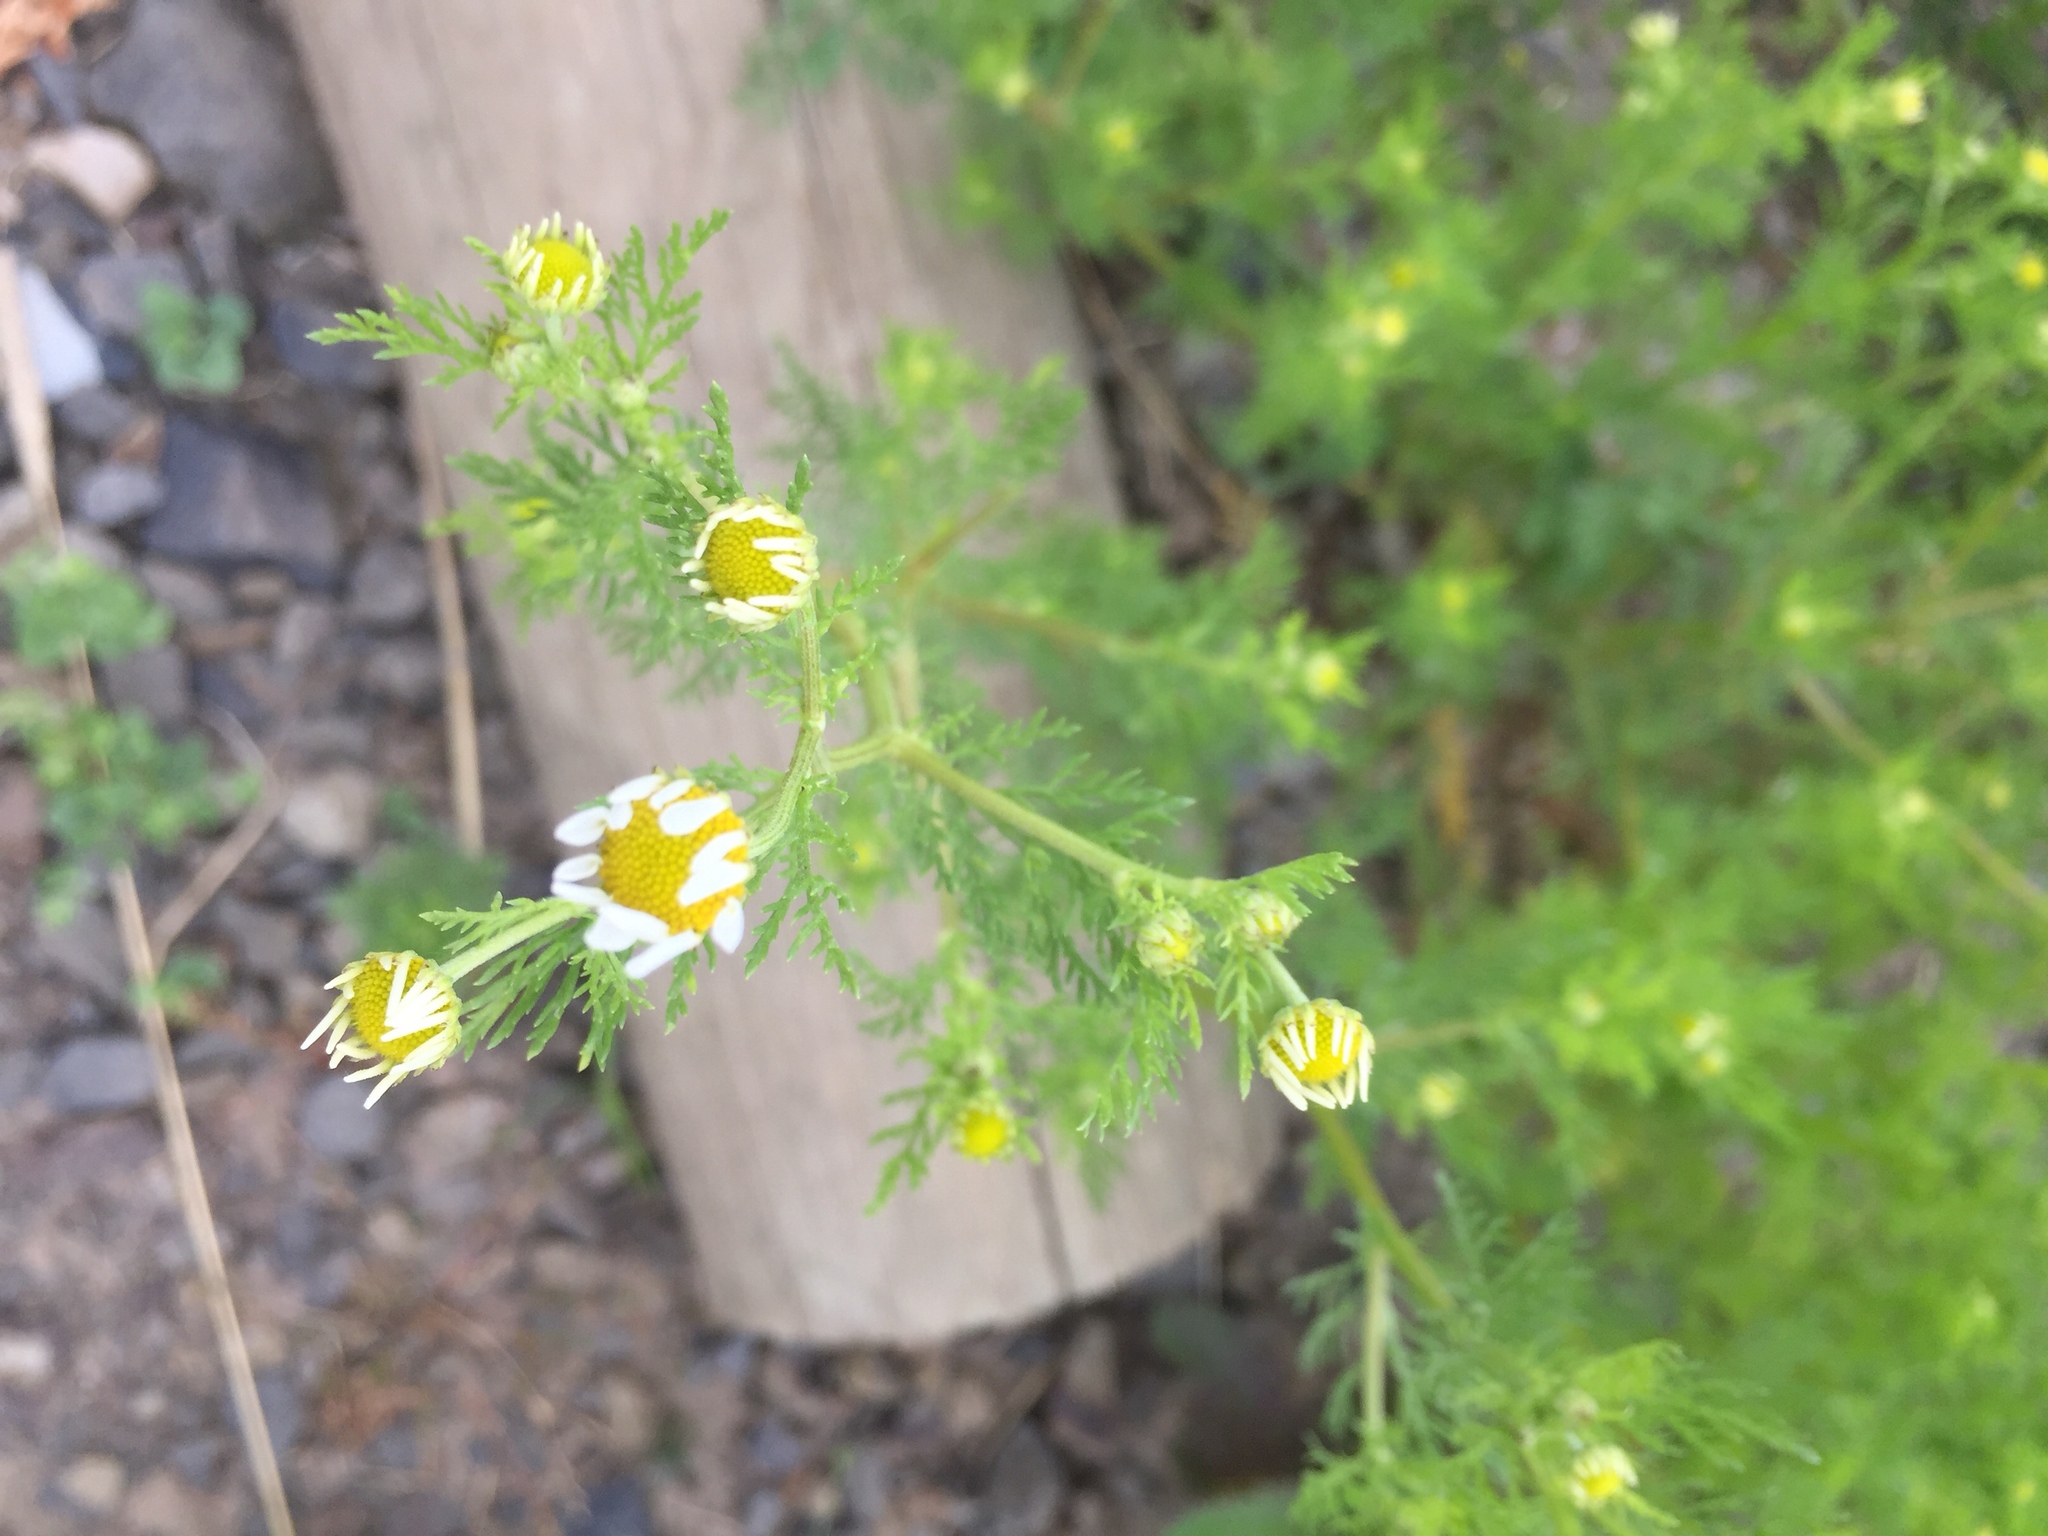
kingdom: Plantae
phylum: Tracheophyta
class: Magnoliopsida
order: Asterales
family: Asteraceae
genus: Anthemis
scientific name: Anthemis cotula
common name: Stinking chamomile
